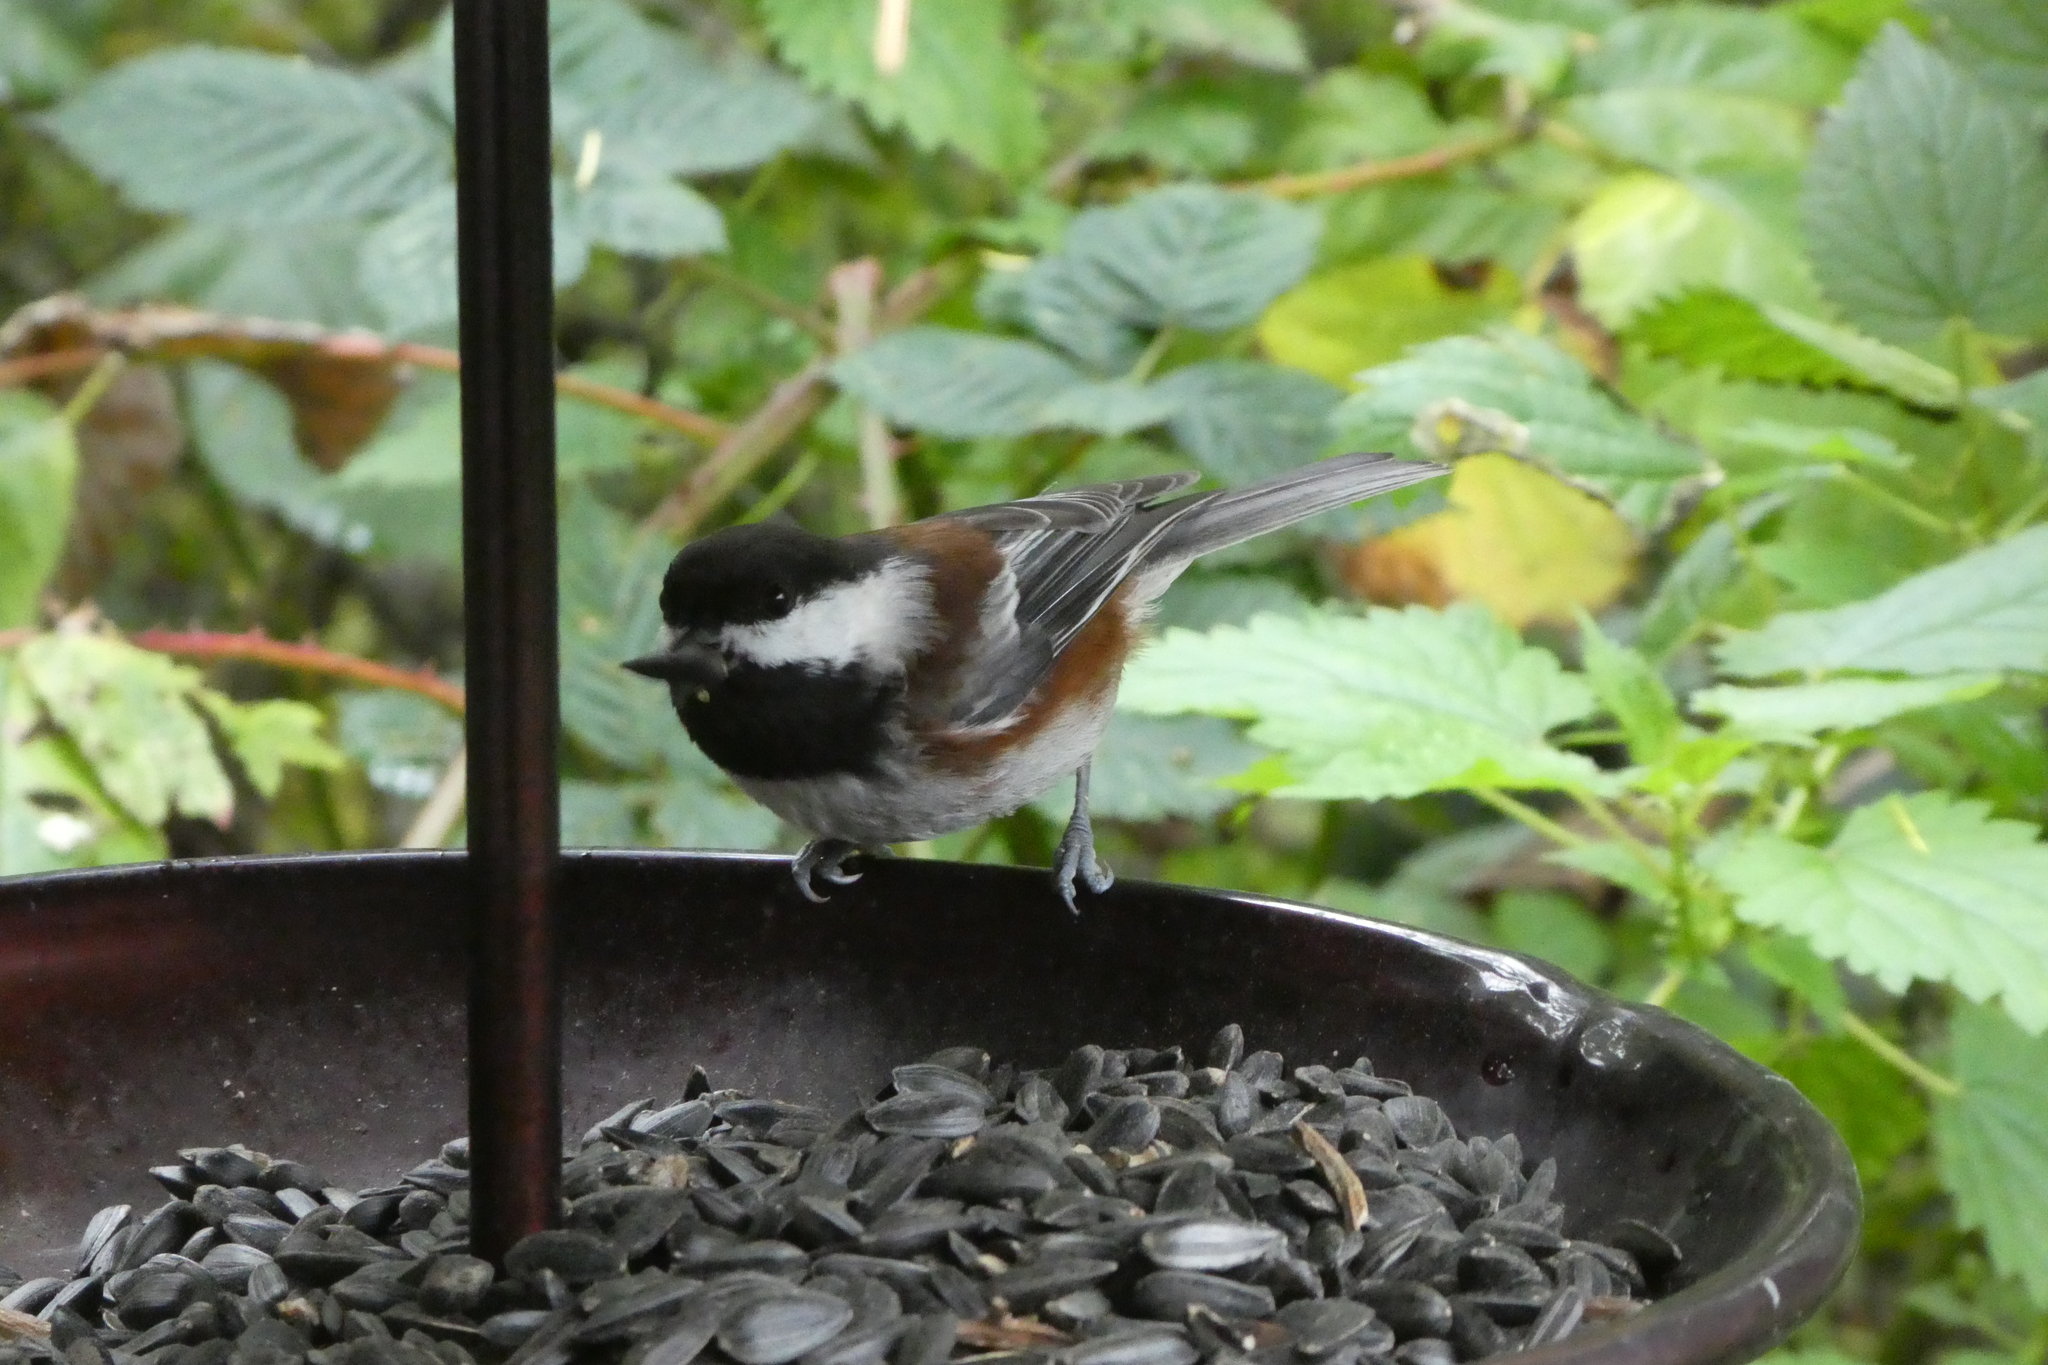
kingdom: Animalia
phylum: Chordata
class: Aves
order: Passeriformes
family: Paridae
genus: Poecile
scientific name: Poecile rufescens
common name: Chestnut-backed chickadee
